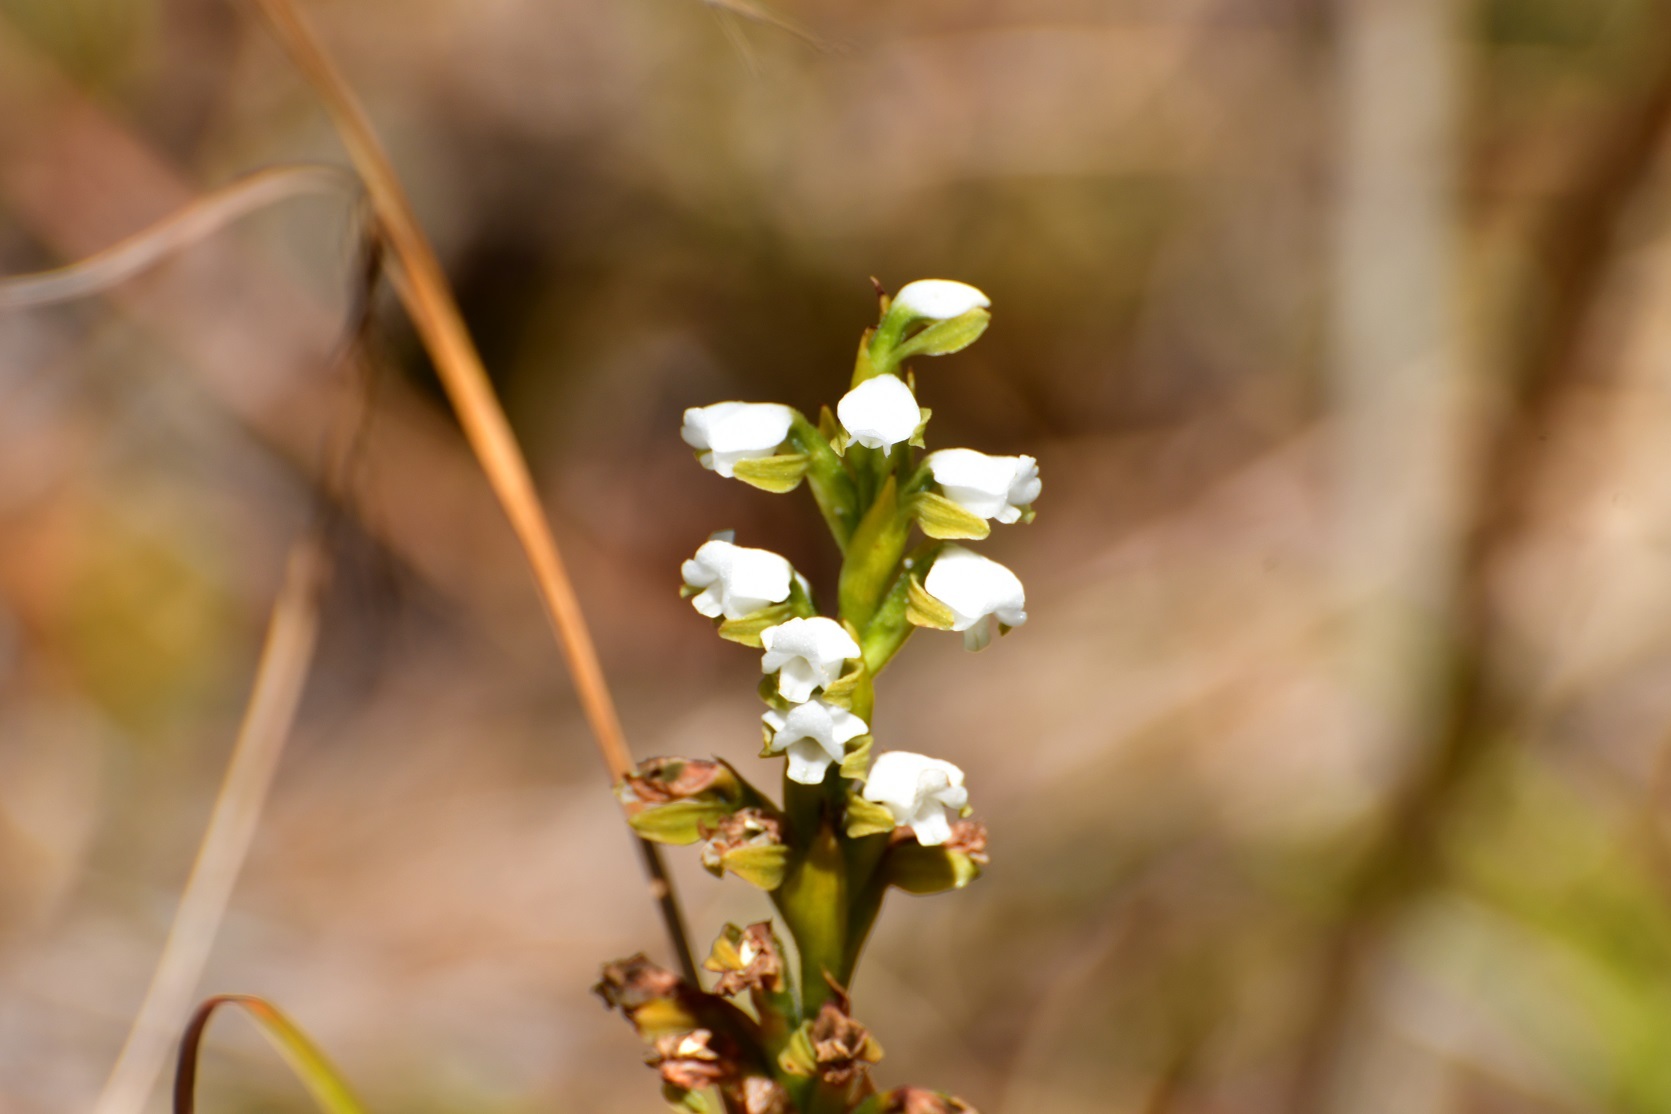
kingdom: Plantae
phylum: Tracheophyta
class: Liliopsida
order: Asparagales
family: Orchidaceae
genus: Aulosepalum
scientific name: Aulosepalum hemichrea
